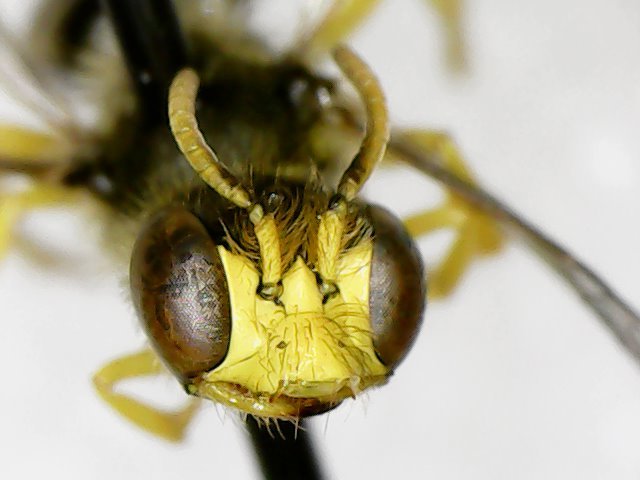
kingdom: Animalia
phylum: Arthropoda
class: Insecta
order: Hymenoptera
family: Andrenidae
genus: Calliopsis
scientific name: Calliopsis andreniformis
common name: Eastern calliopsis bee
